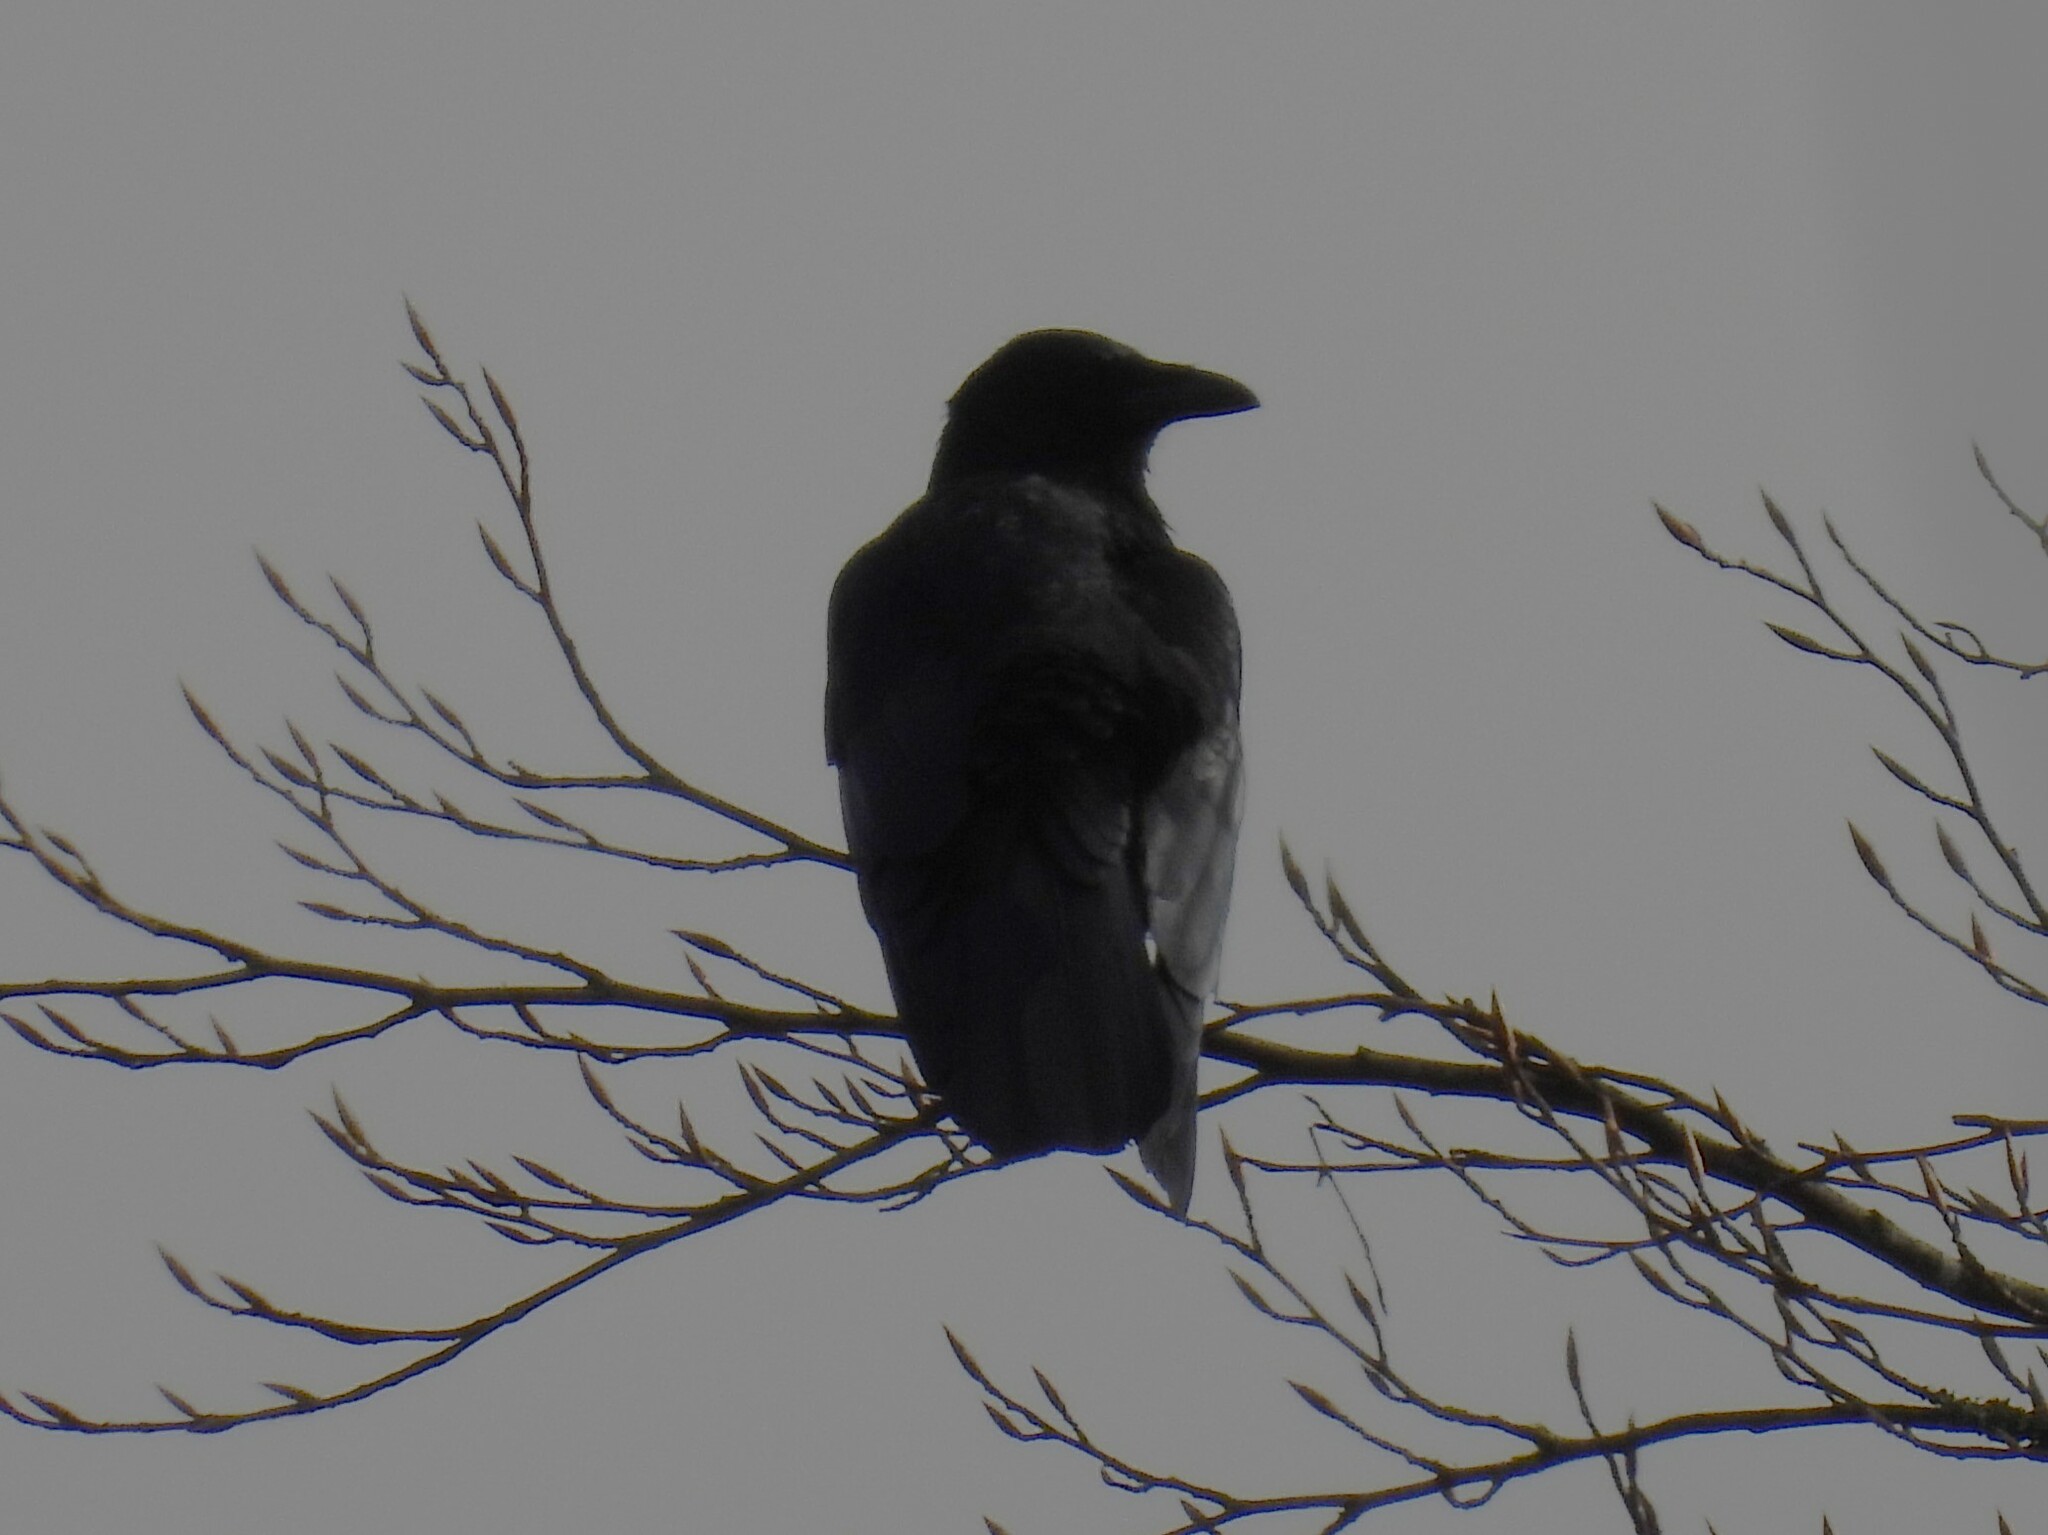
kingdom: Animalia
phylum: Chordata
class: Aves
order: Passeriformes
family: Corvidae
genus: Corvus
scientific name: Corvus corax
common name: Common raven
